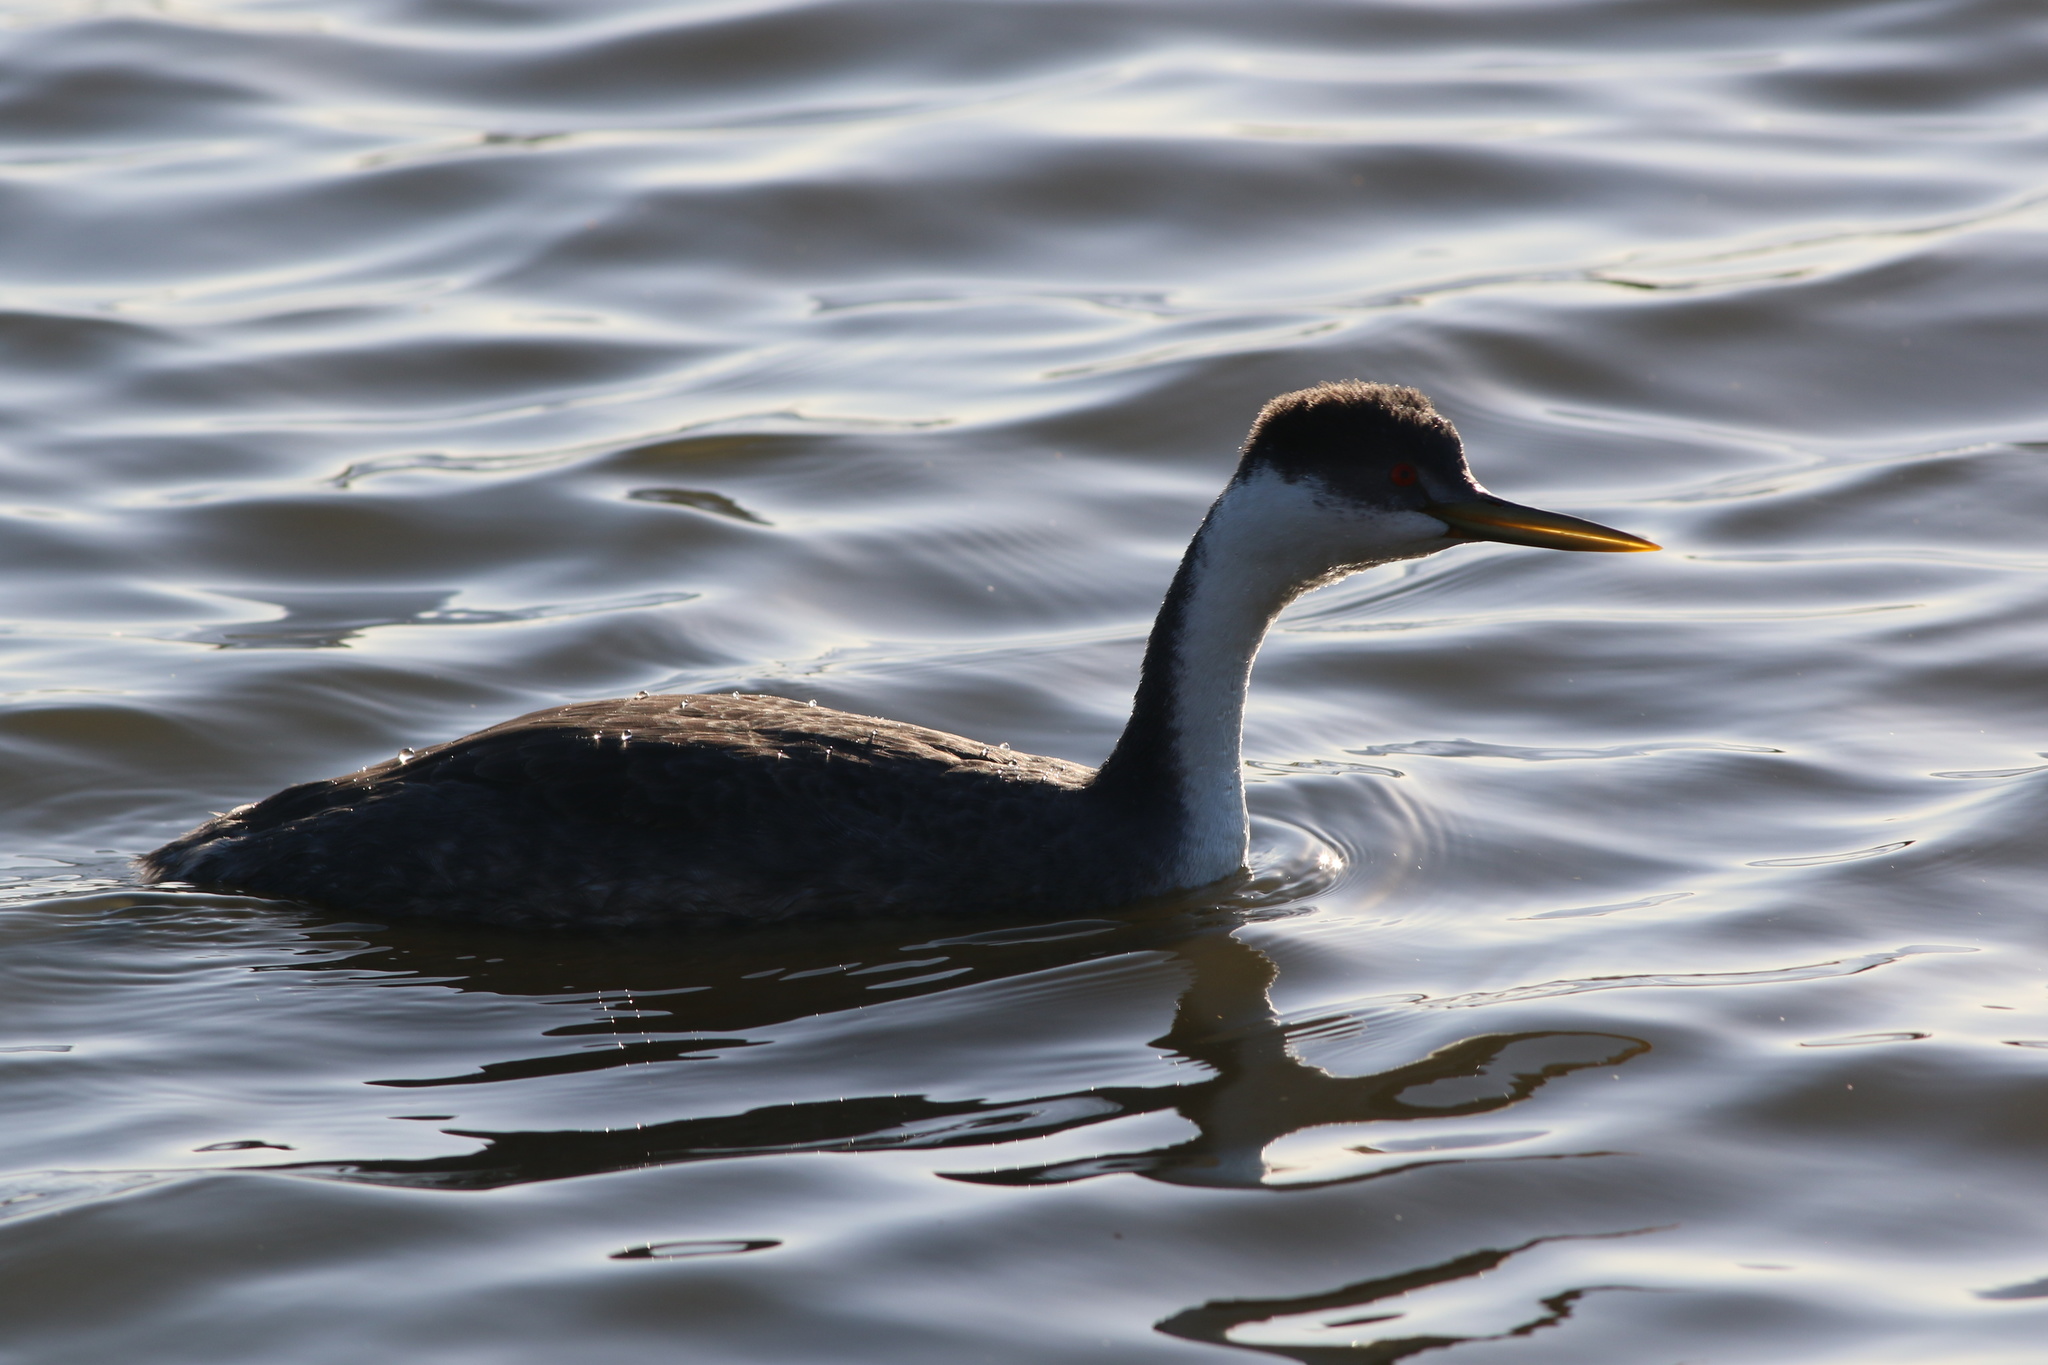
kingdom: Animalia
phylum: Chordata
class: Aves
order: Podicipediformes
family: Podicipedidae
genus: Aechmophorus
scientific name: Aechmophorus occidentalis
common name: Western grebe
